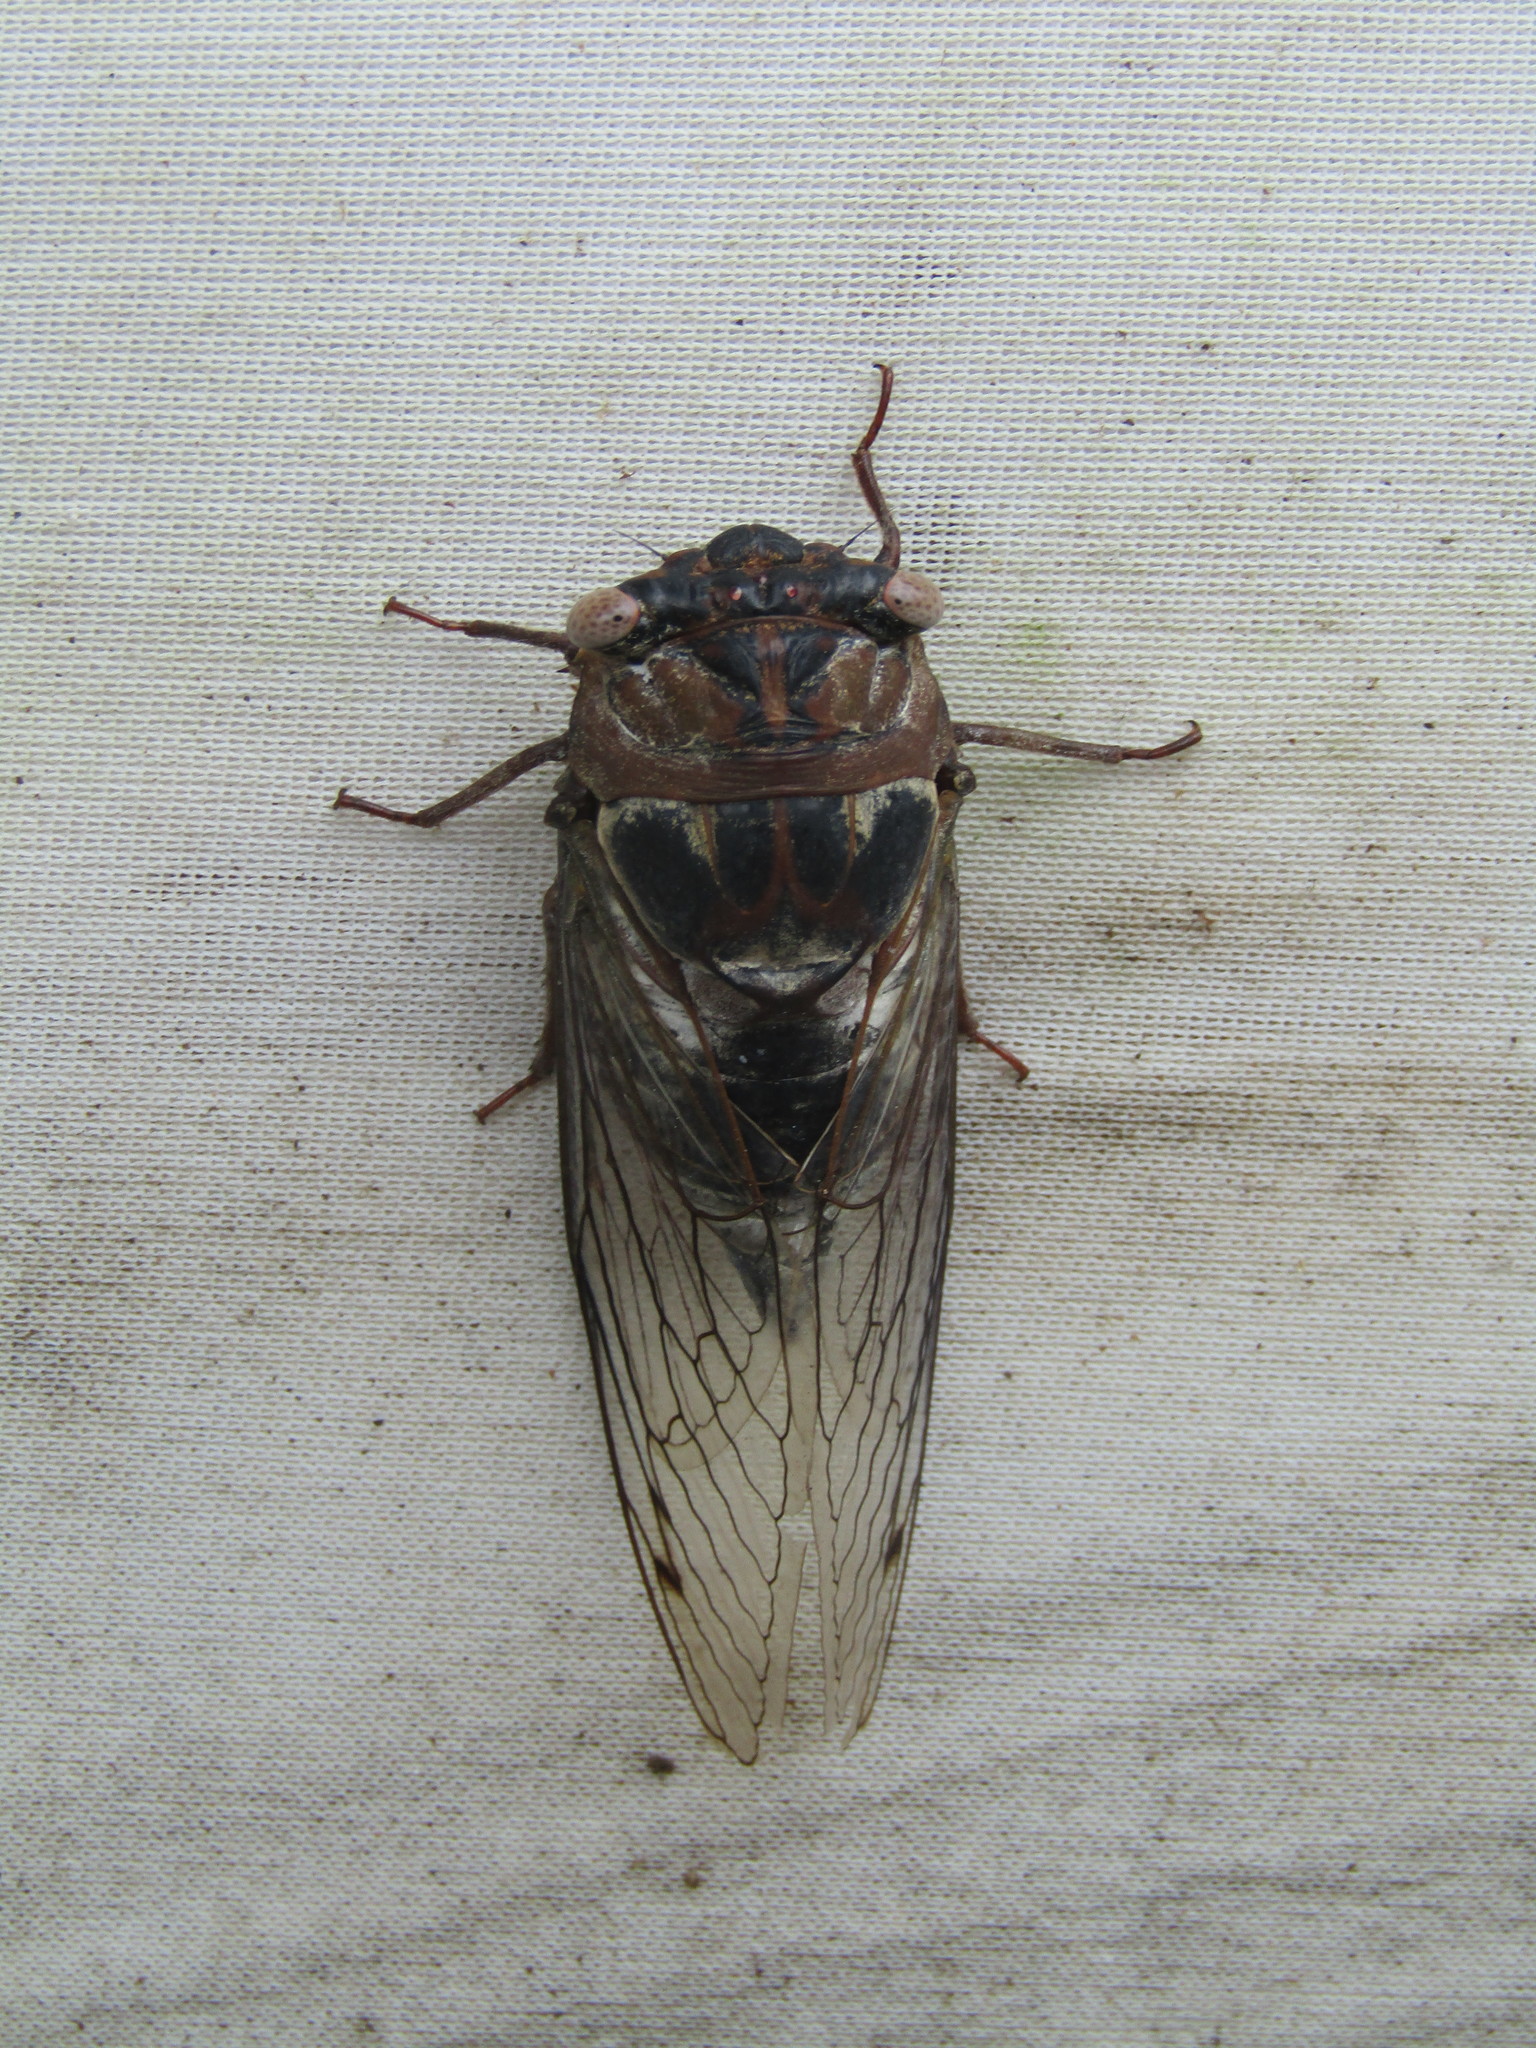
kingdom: Animalia
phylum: Arthropoda
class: Insecta
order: Hemiptera
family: Cicadidae
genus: Diceroprocta
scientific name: Diceroprocta grossa
